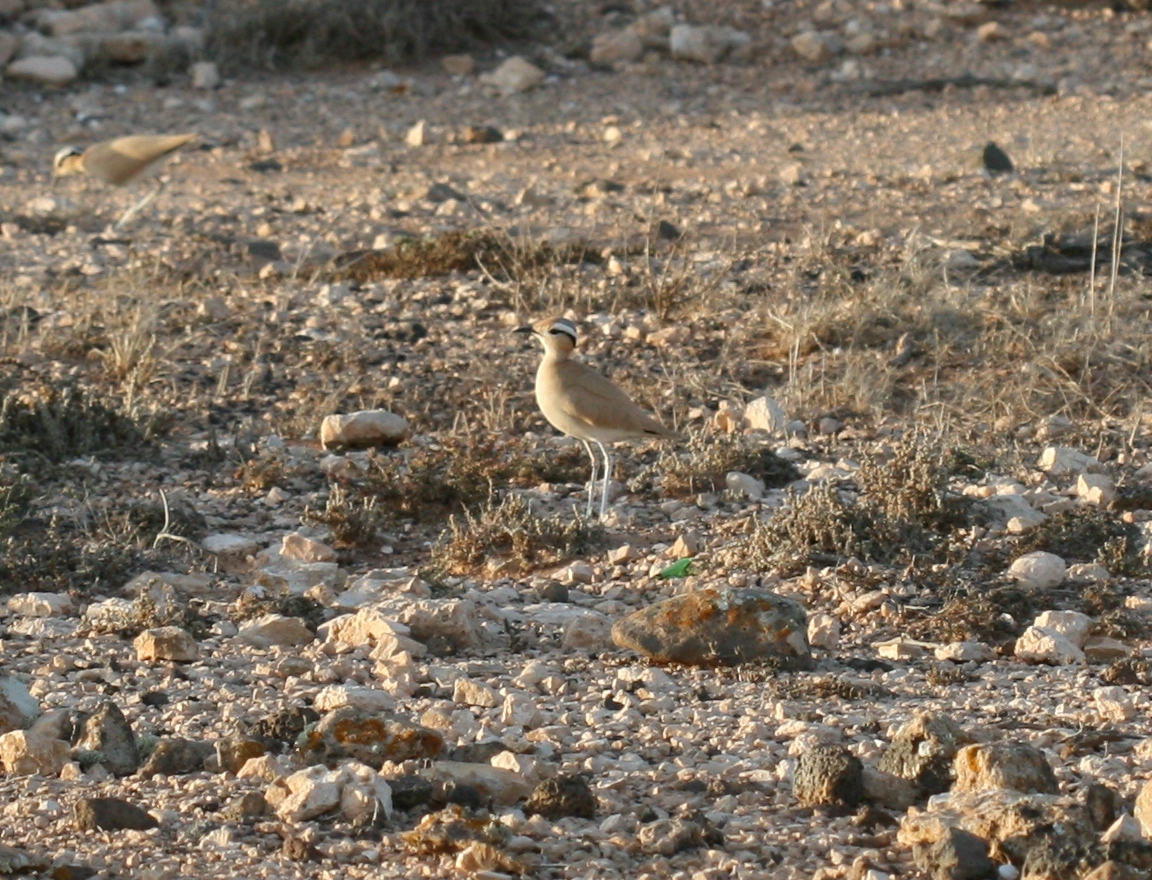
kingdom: Animalia
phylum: Chordata
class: Aves
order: Charadriiformes
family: Glareolidae
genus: Cursorius
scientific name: Cursorius cursor
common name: Cream-colored courser
